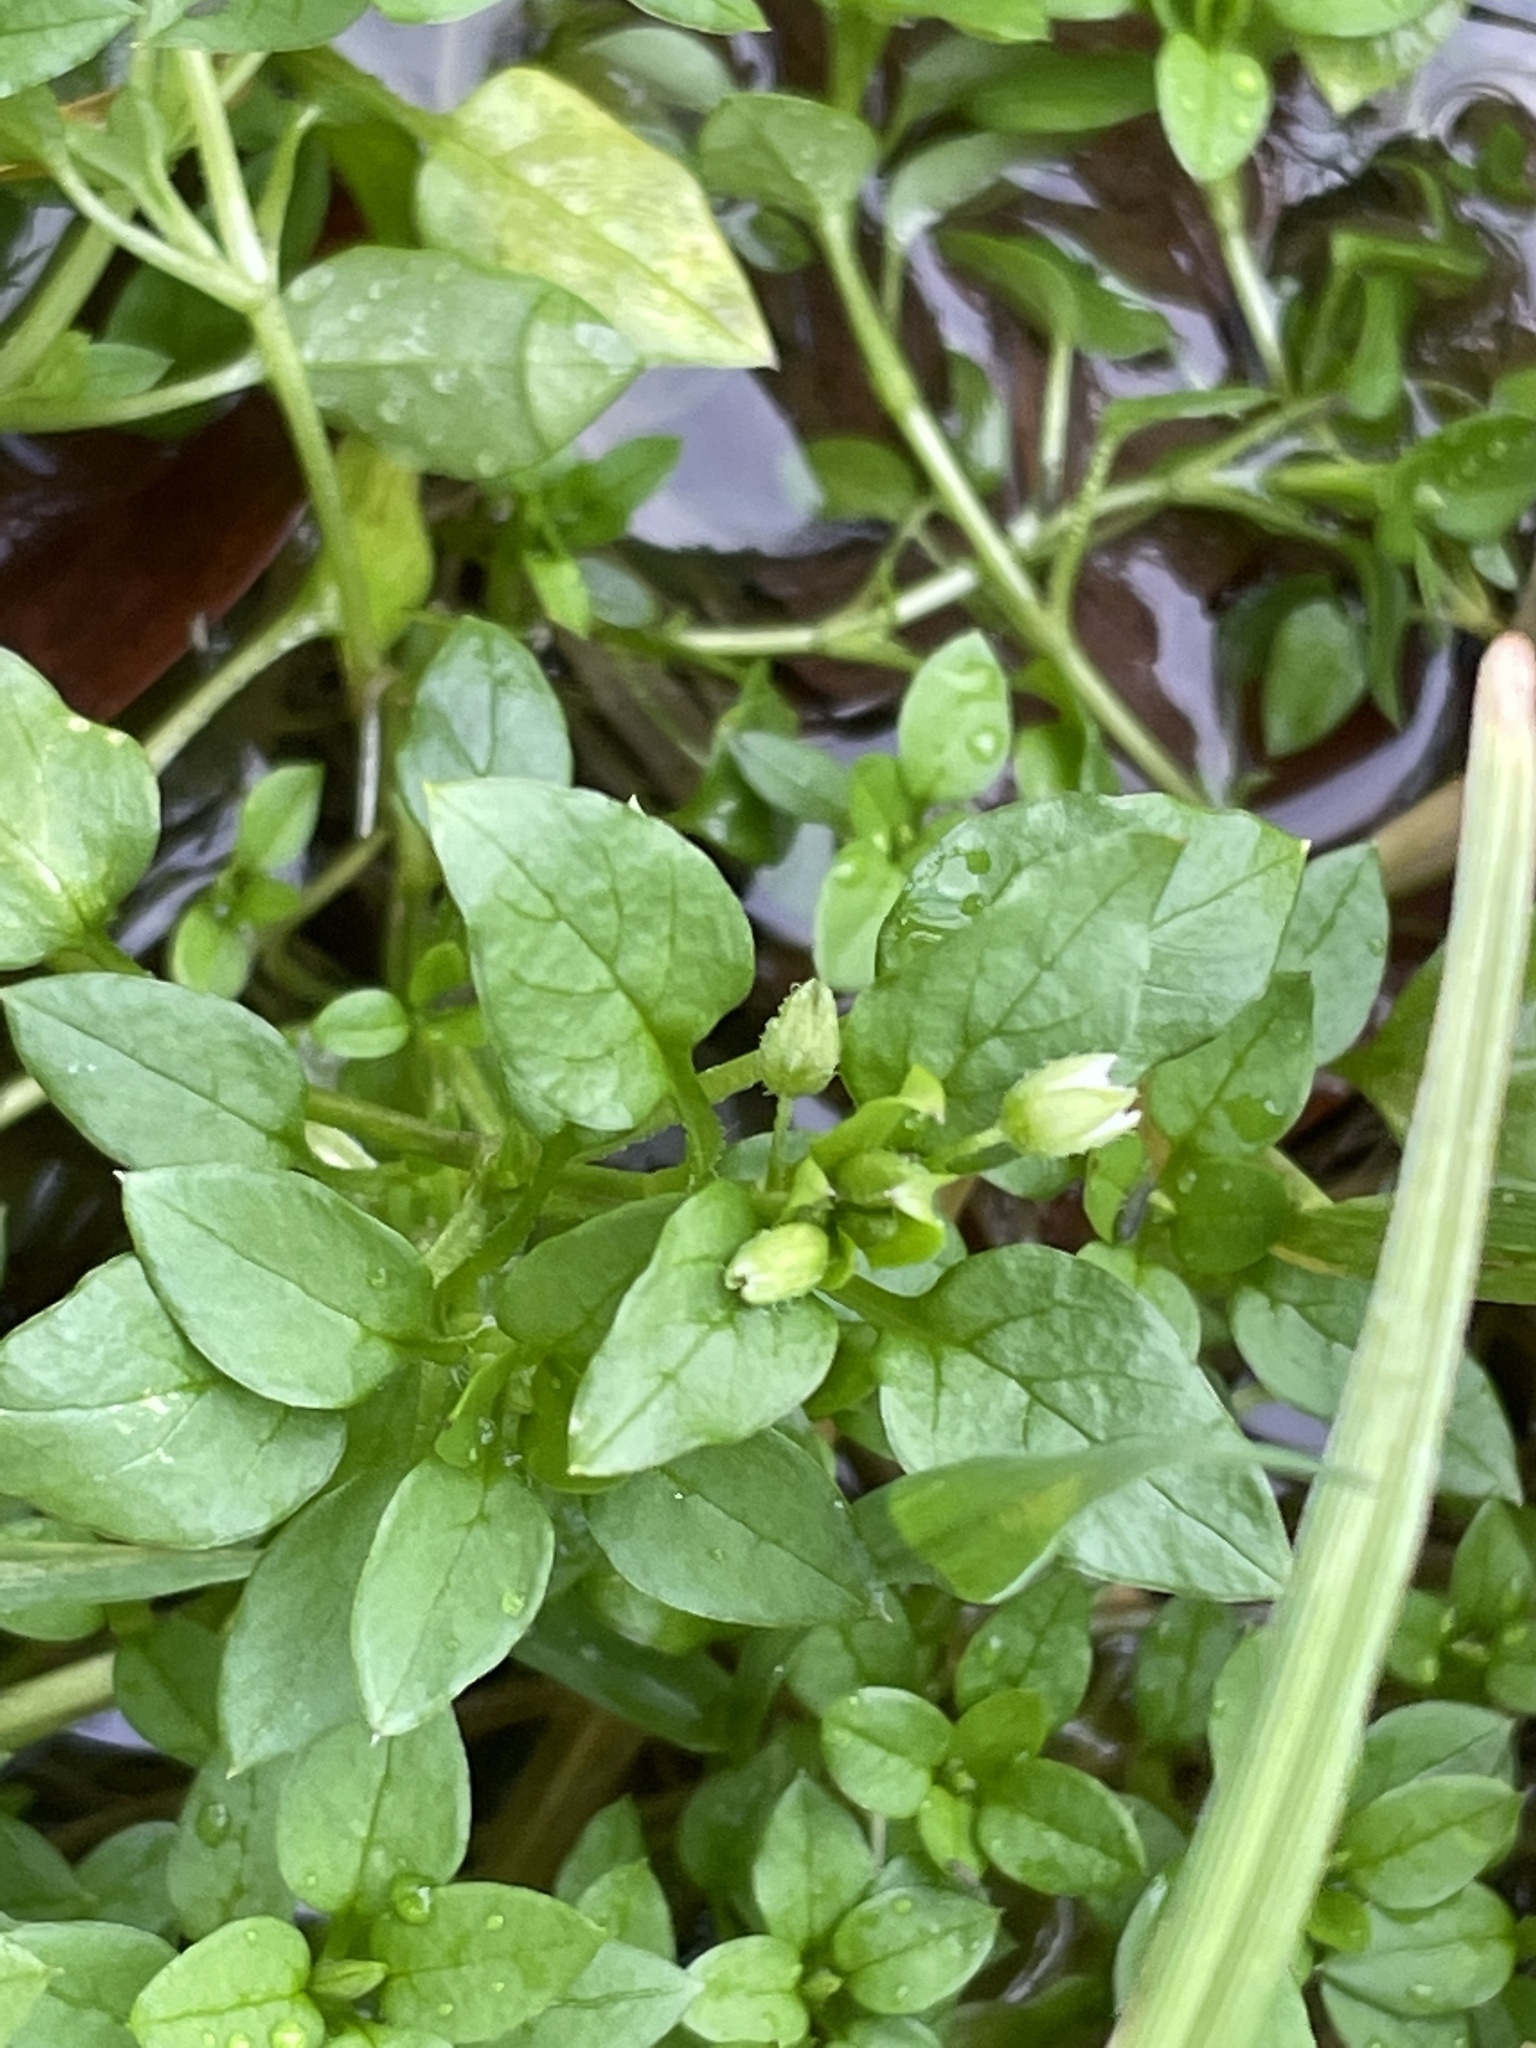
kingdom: Plantae
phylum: Tracheophyta
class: Magnoliopsida
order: Caryophyllales
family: Caryophyllaceae
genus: Stellaria
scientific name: Stellaria media
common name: Common chickweed
